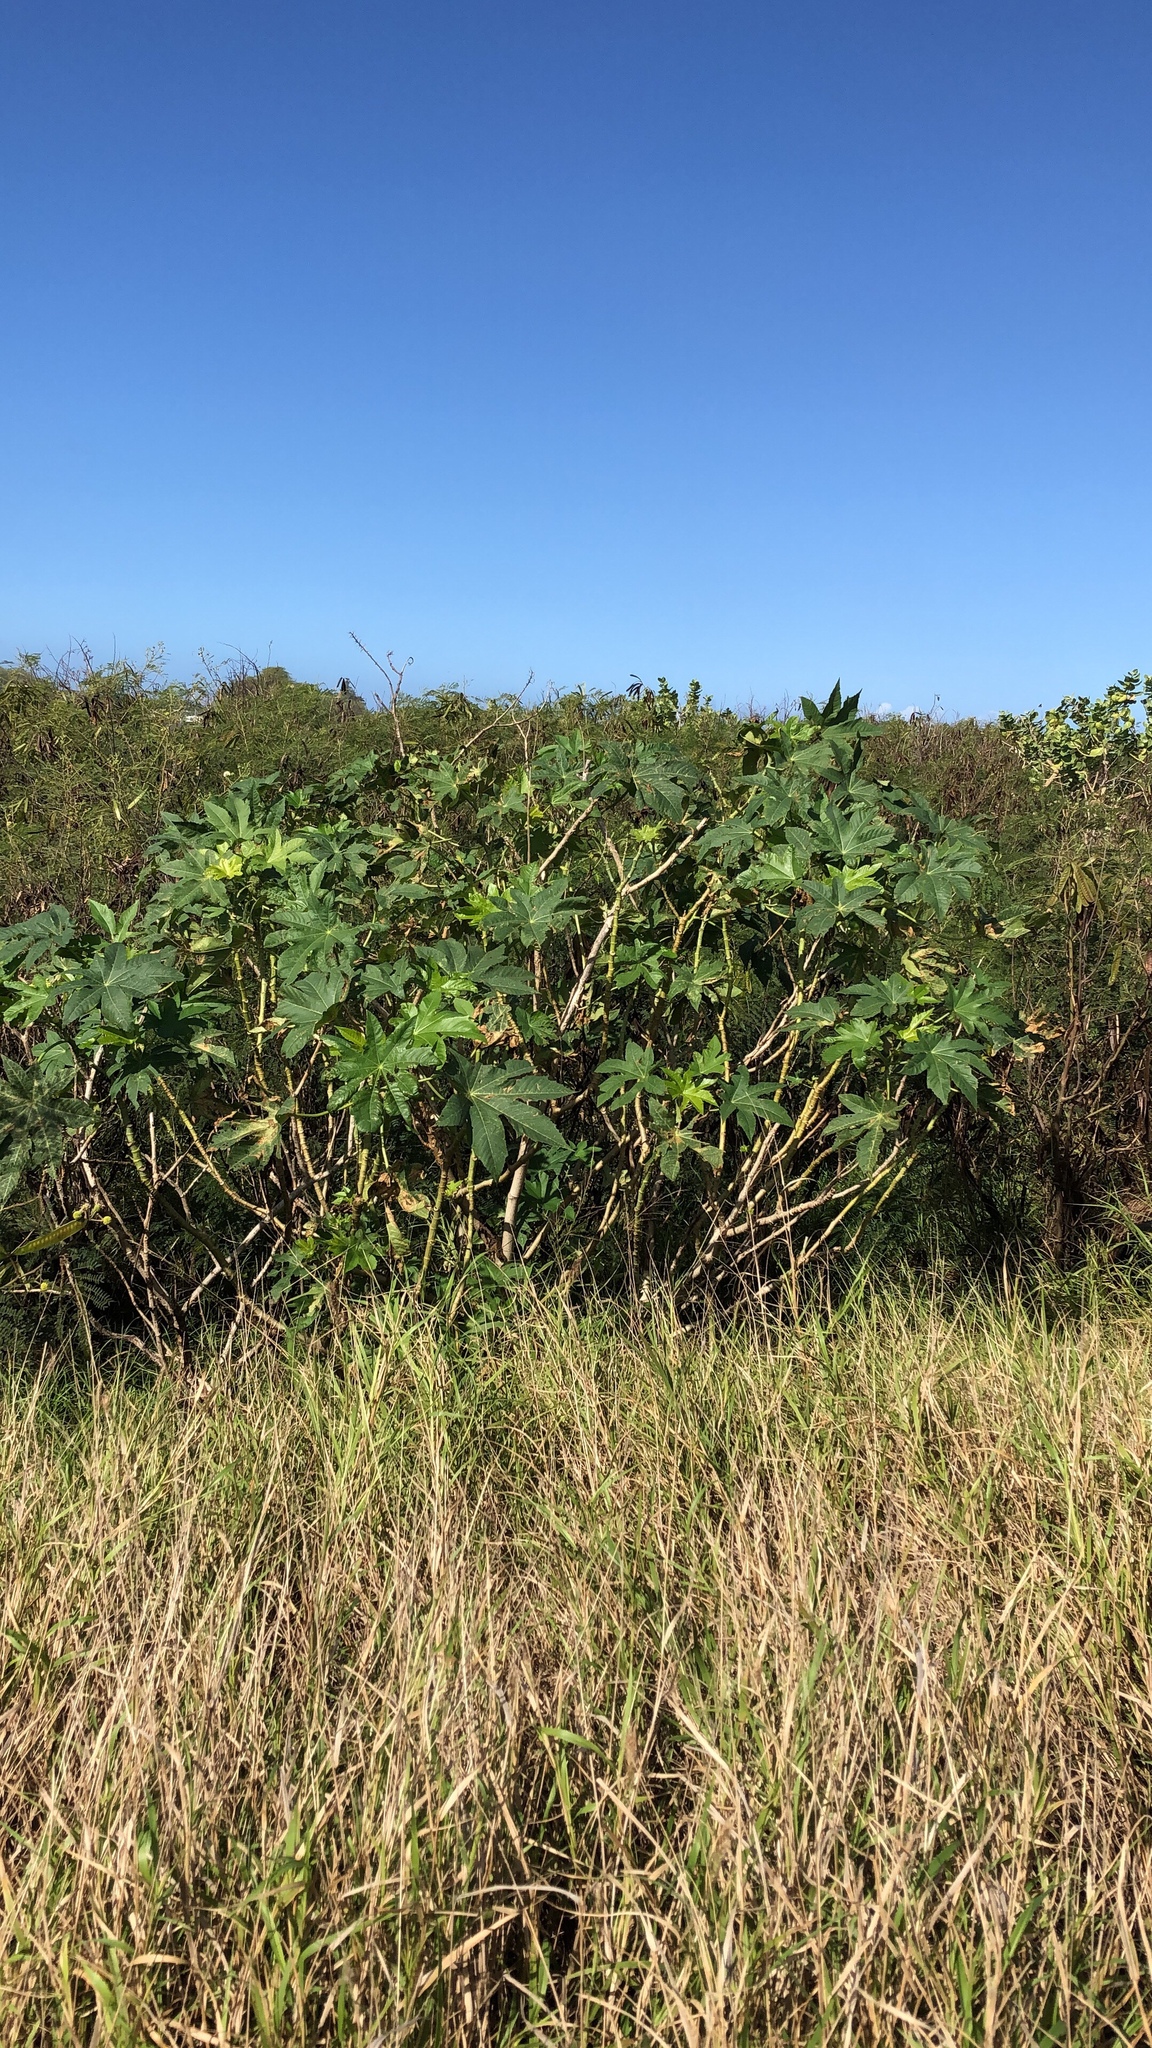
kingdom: Plantae
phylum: Tracheophyta
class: Magnoliopsida
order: Malpighiales
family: Euphorbiaceae
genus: Ricinus
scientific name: Ricinus communis
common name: Castor-oil-plant
